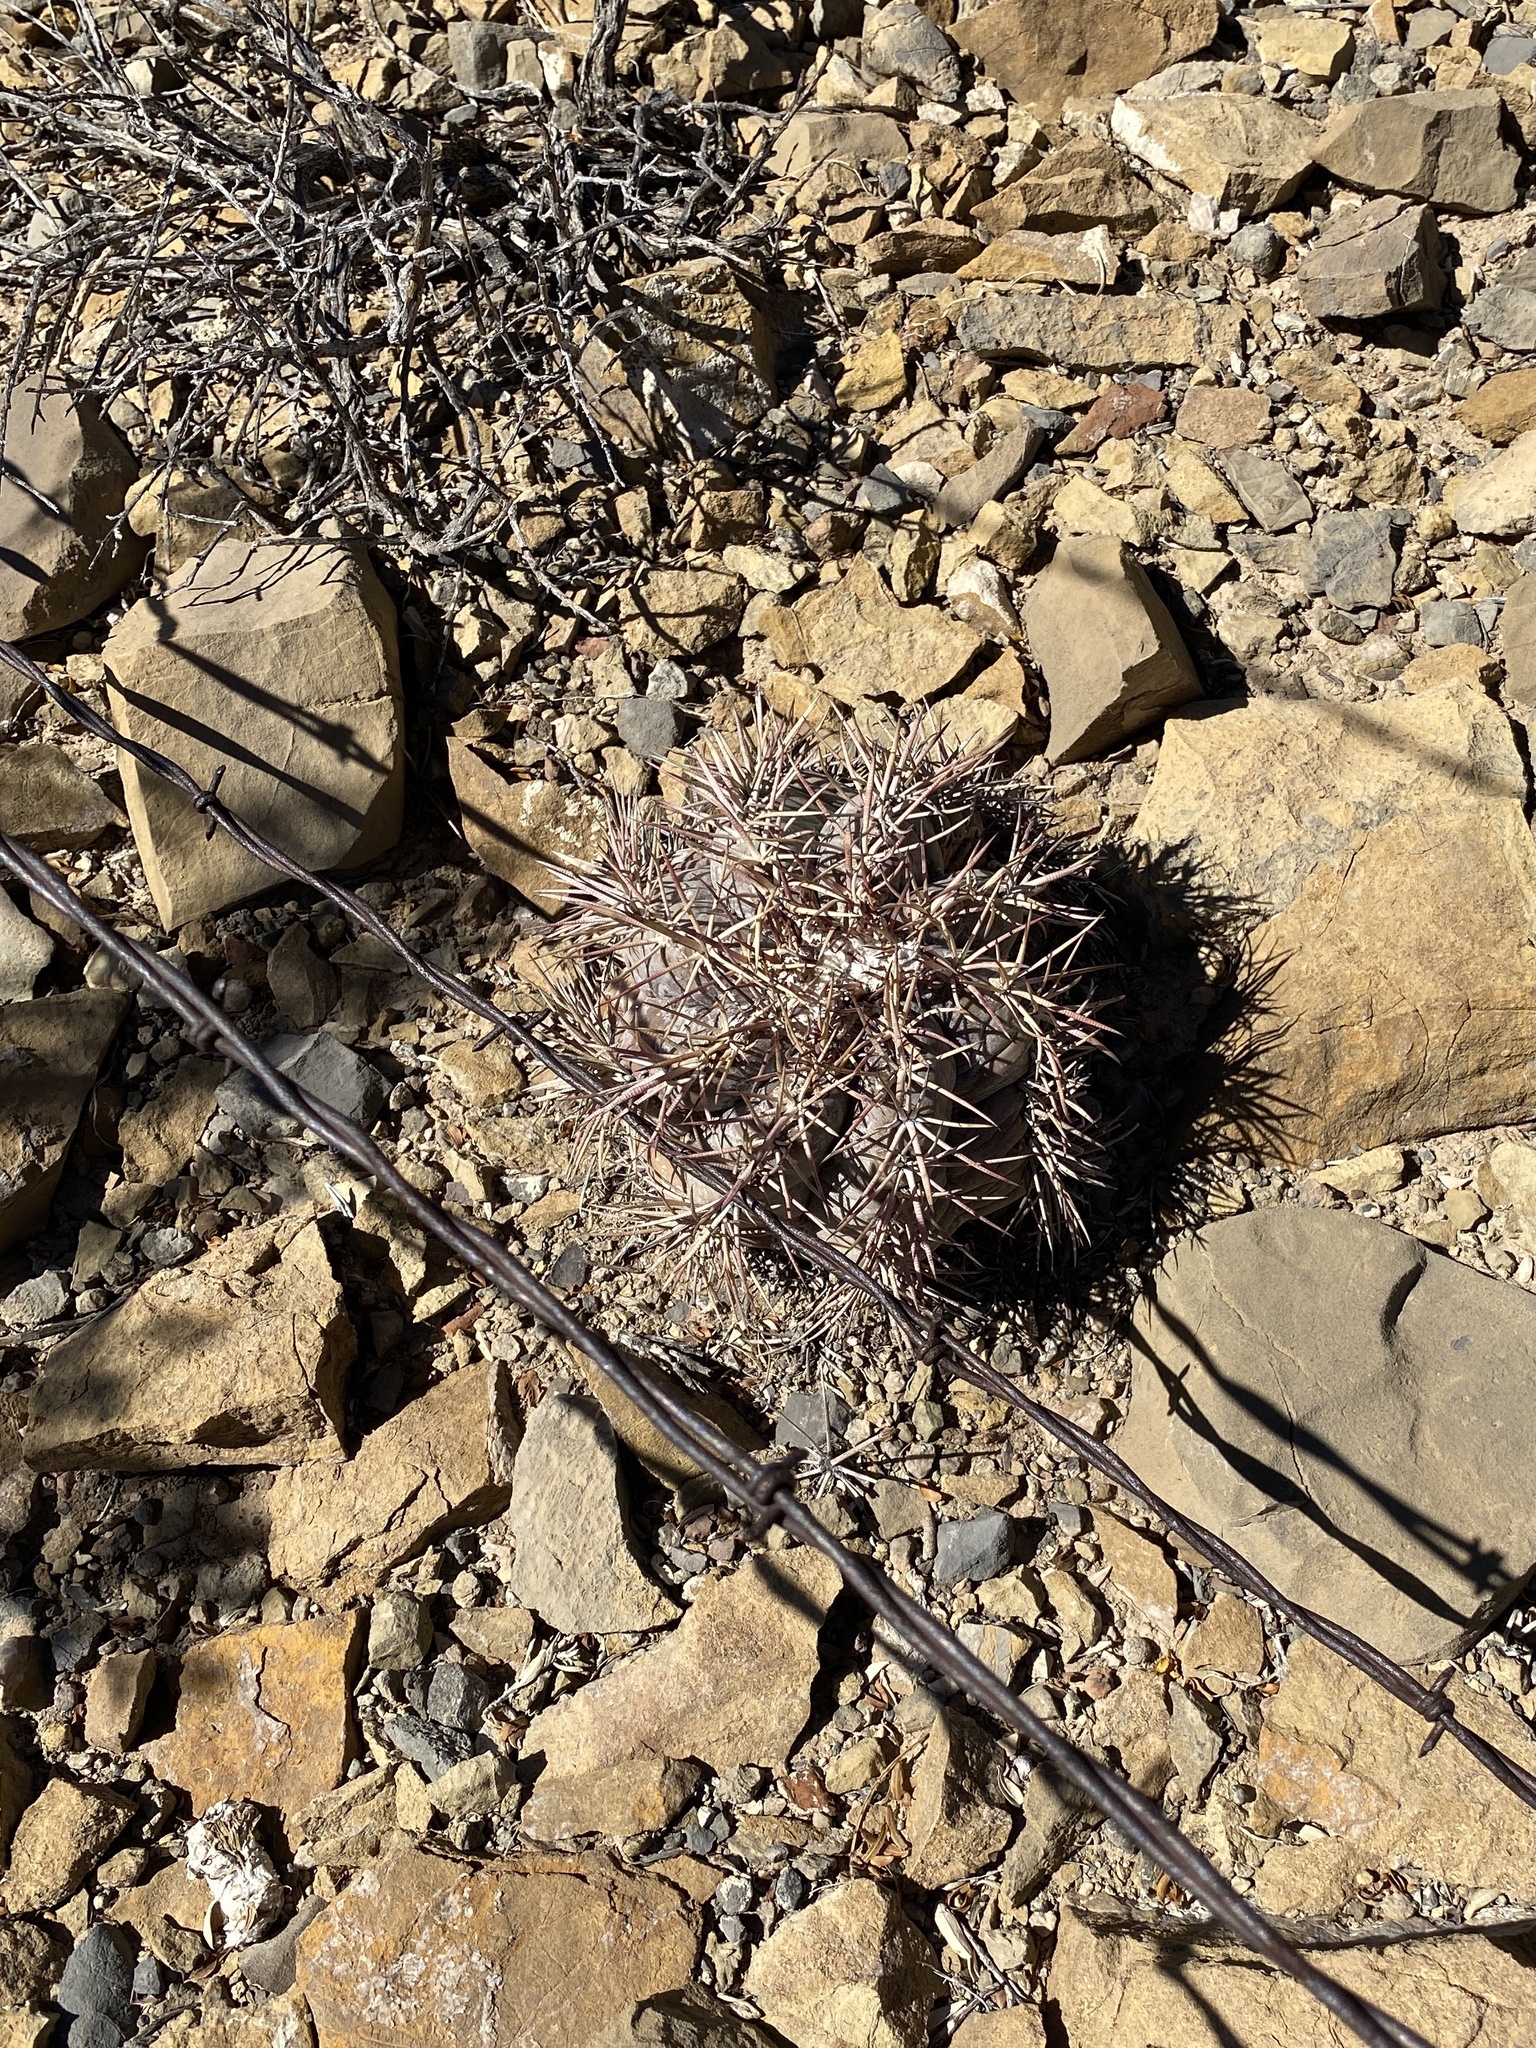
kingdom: Plantae
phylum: Tracheophyta
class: Magnoliopsida
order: Caryophyllales
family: Cactaceae
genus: Echinocactus
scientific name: Echinocactus horizonthalonius
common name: Devilshead
